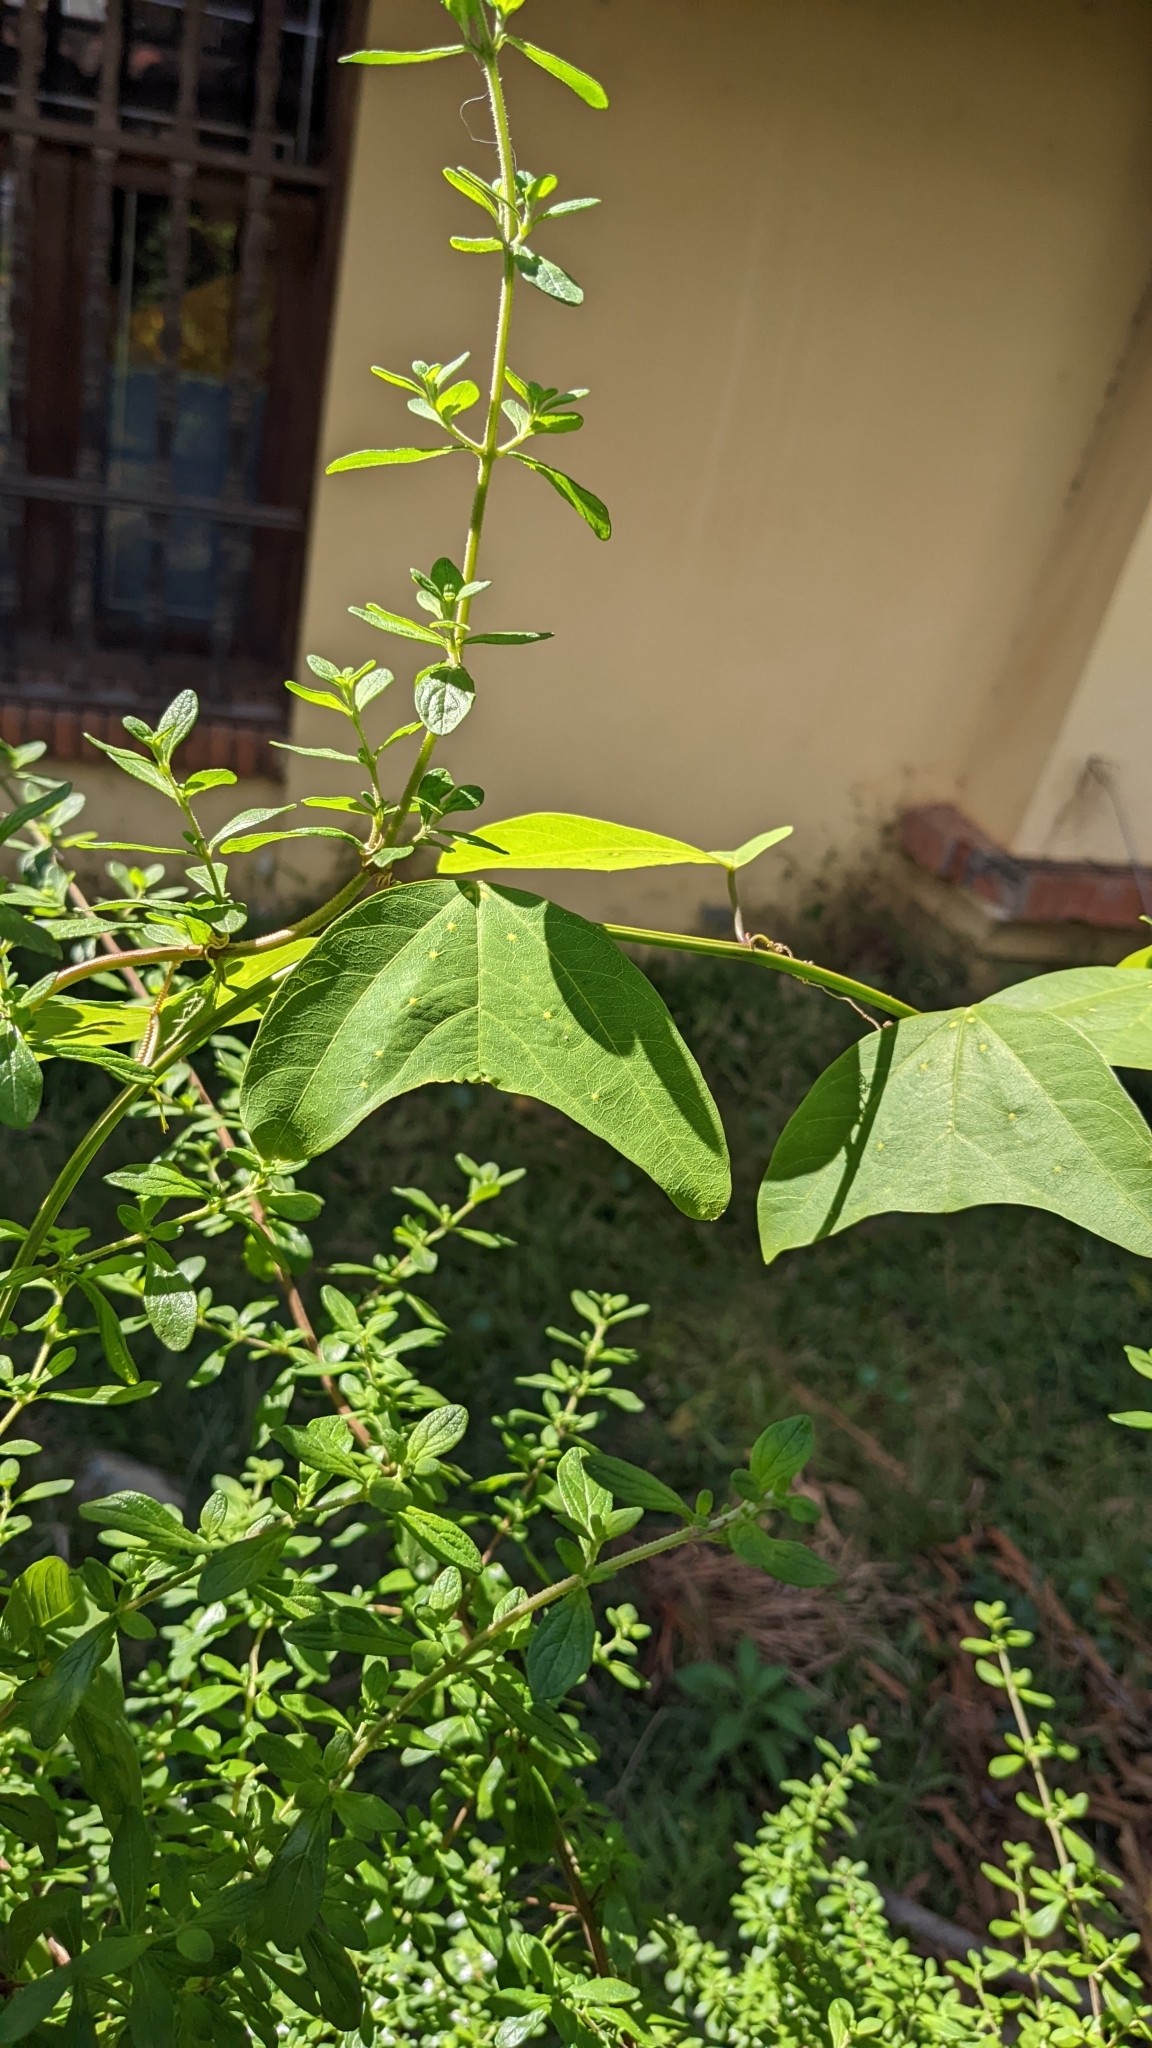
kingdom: Plantae
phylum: Tracheophyta
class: Magnoliopsida
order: Malpighiales
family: Passifloraceae
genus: Passiflora
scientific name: Passiflora biflora
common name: Twoflower passionflower
